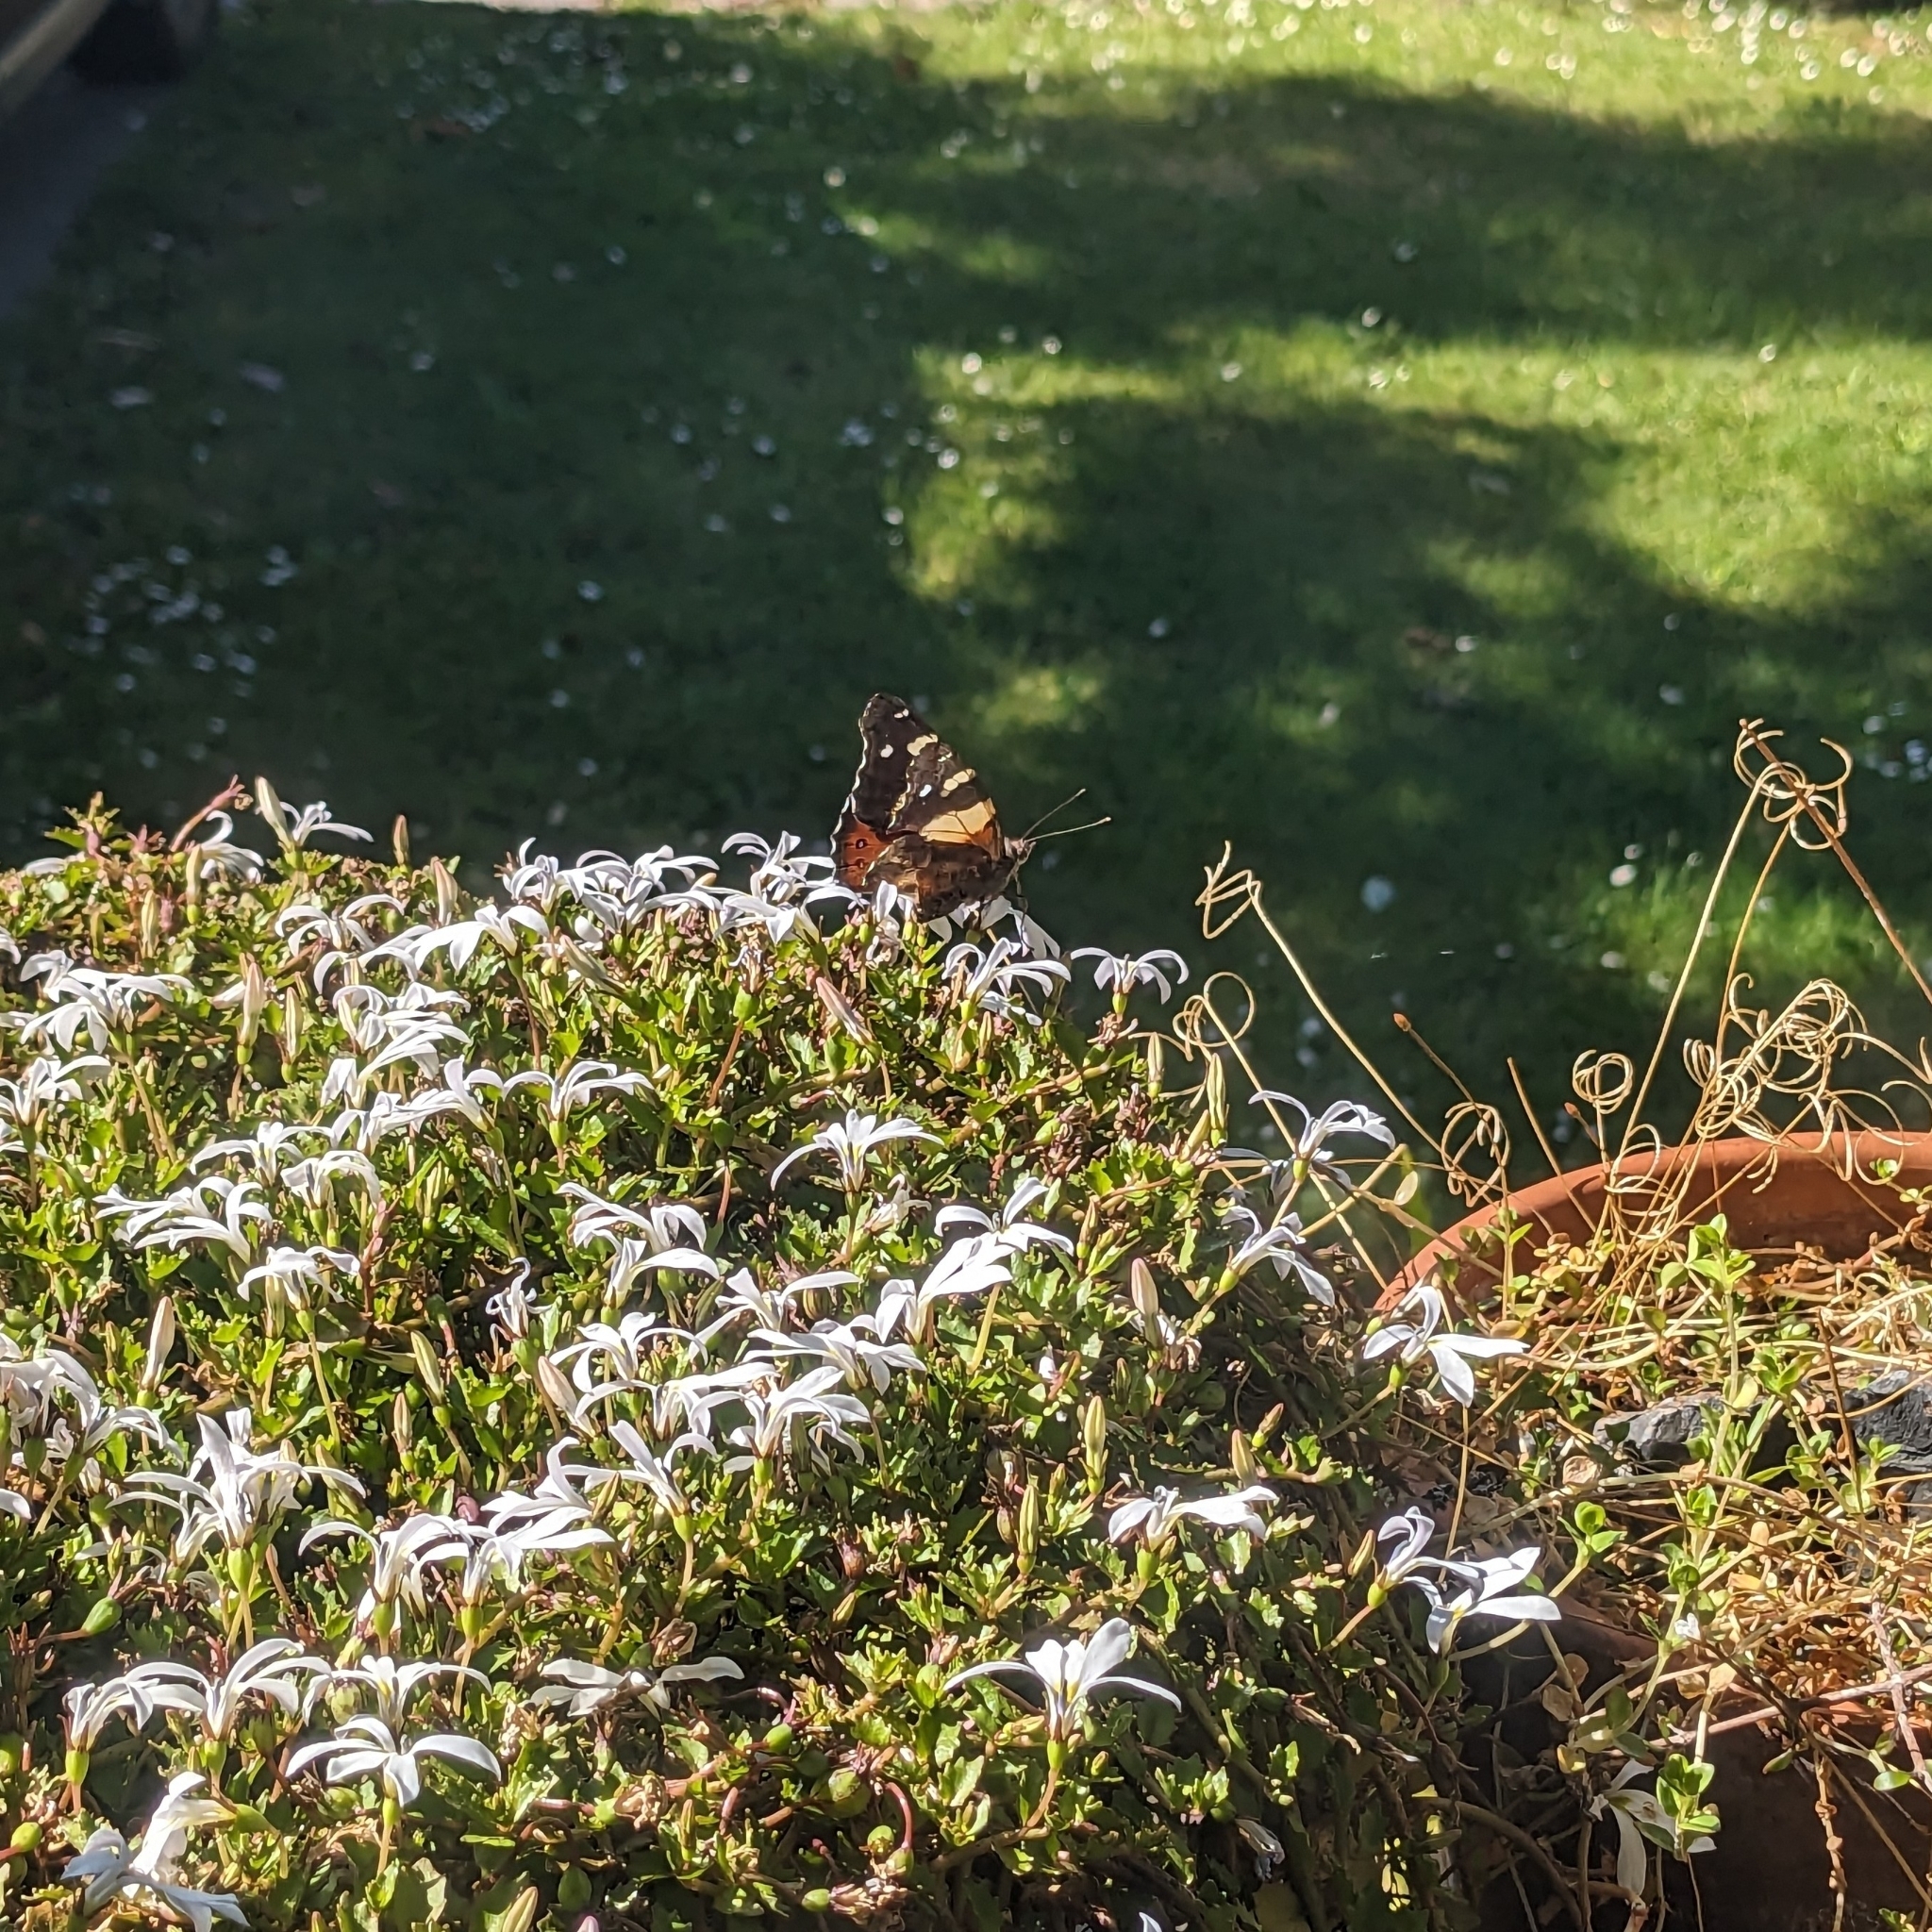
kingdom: Animalia
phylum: Arthropoda
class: Insecta
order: Lepidoptera
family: Nymphalidae
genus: Vanessa
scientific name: Vanessa itea
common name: Yellow admiral
